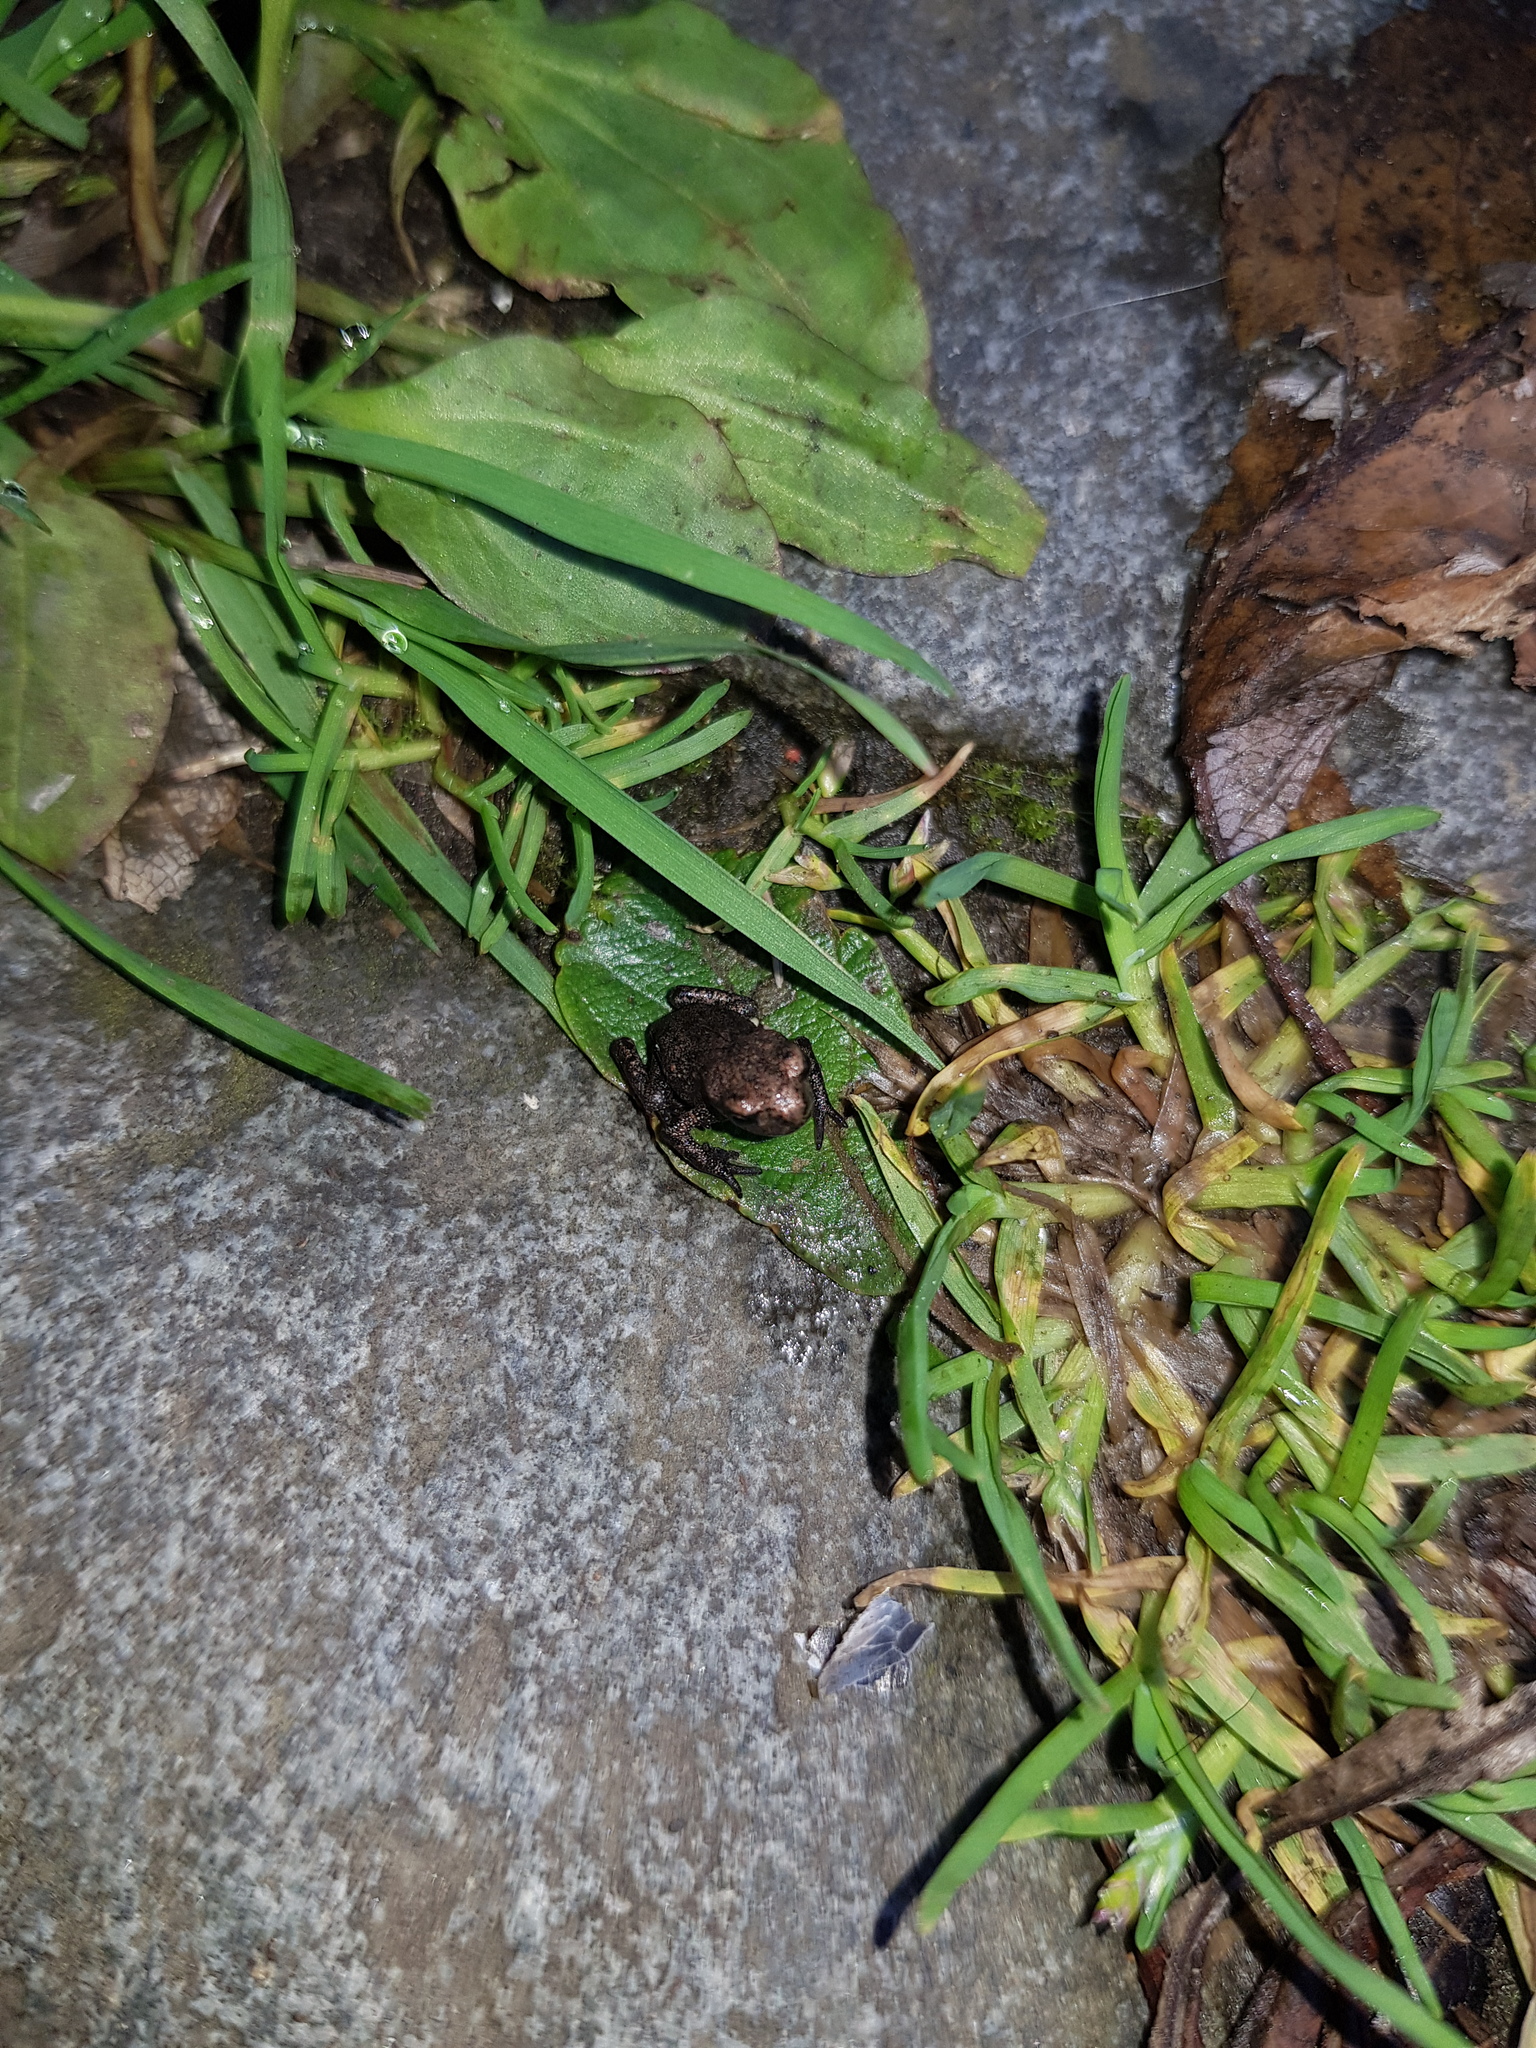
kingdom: Animalia
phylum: Chordata
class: Amphibia
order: Anura
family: Bufonidae
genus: Bufo
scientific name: Bufo bufo
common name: Common toad
